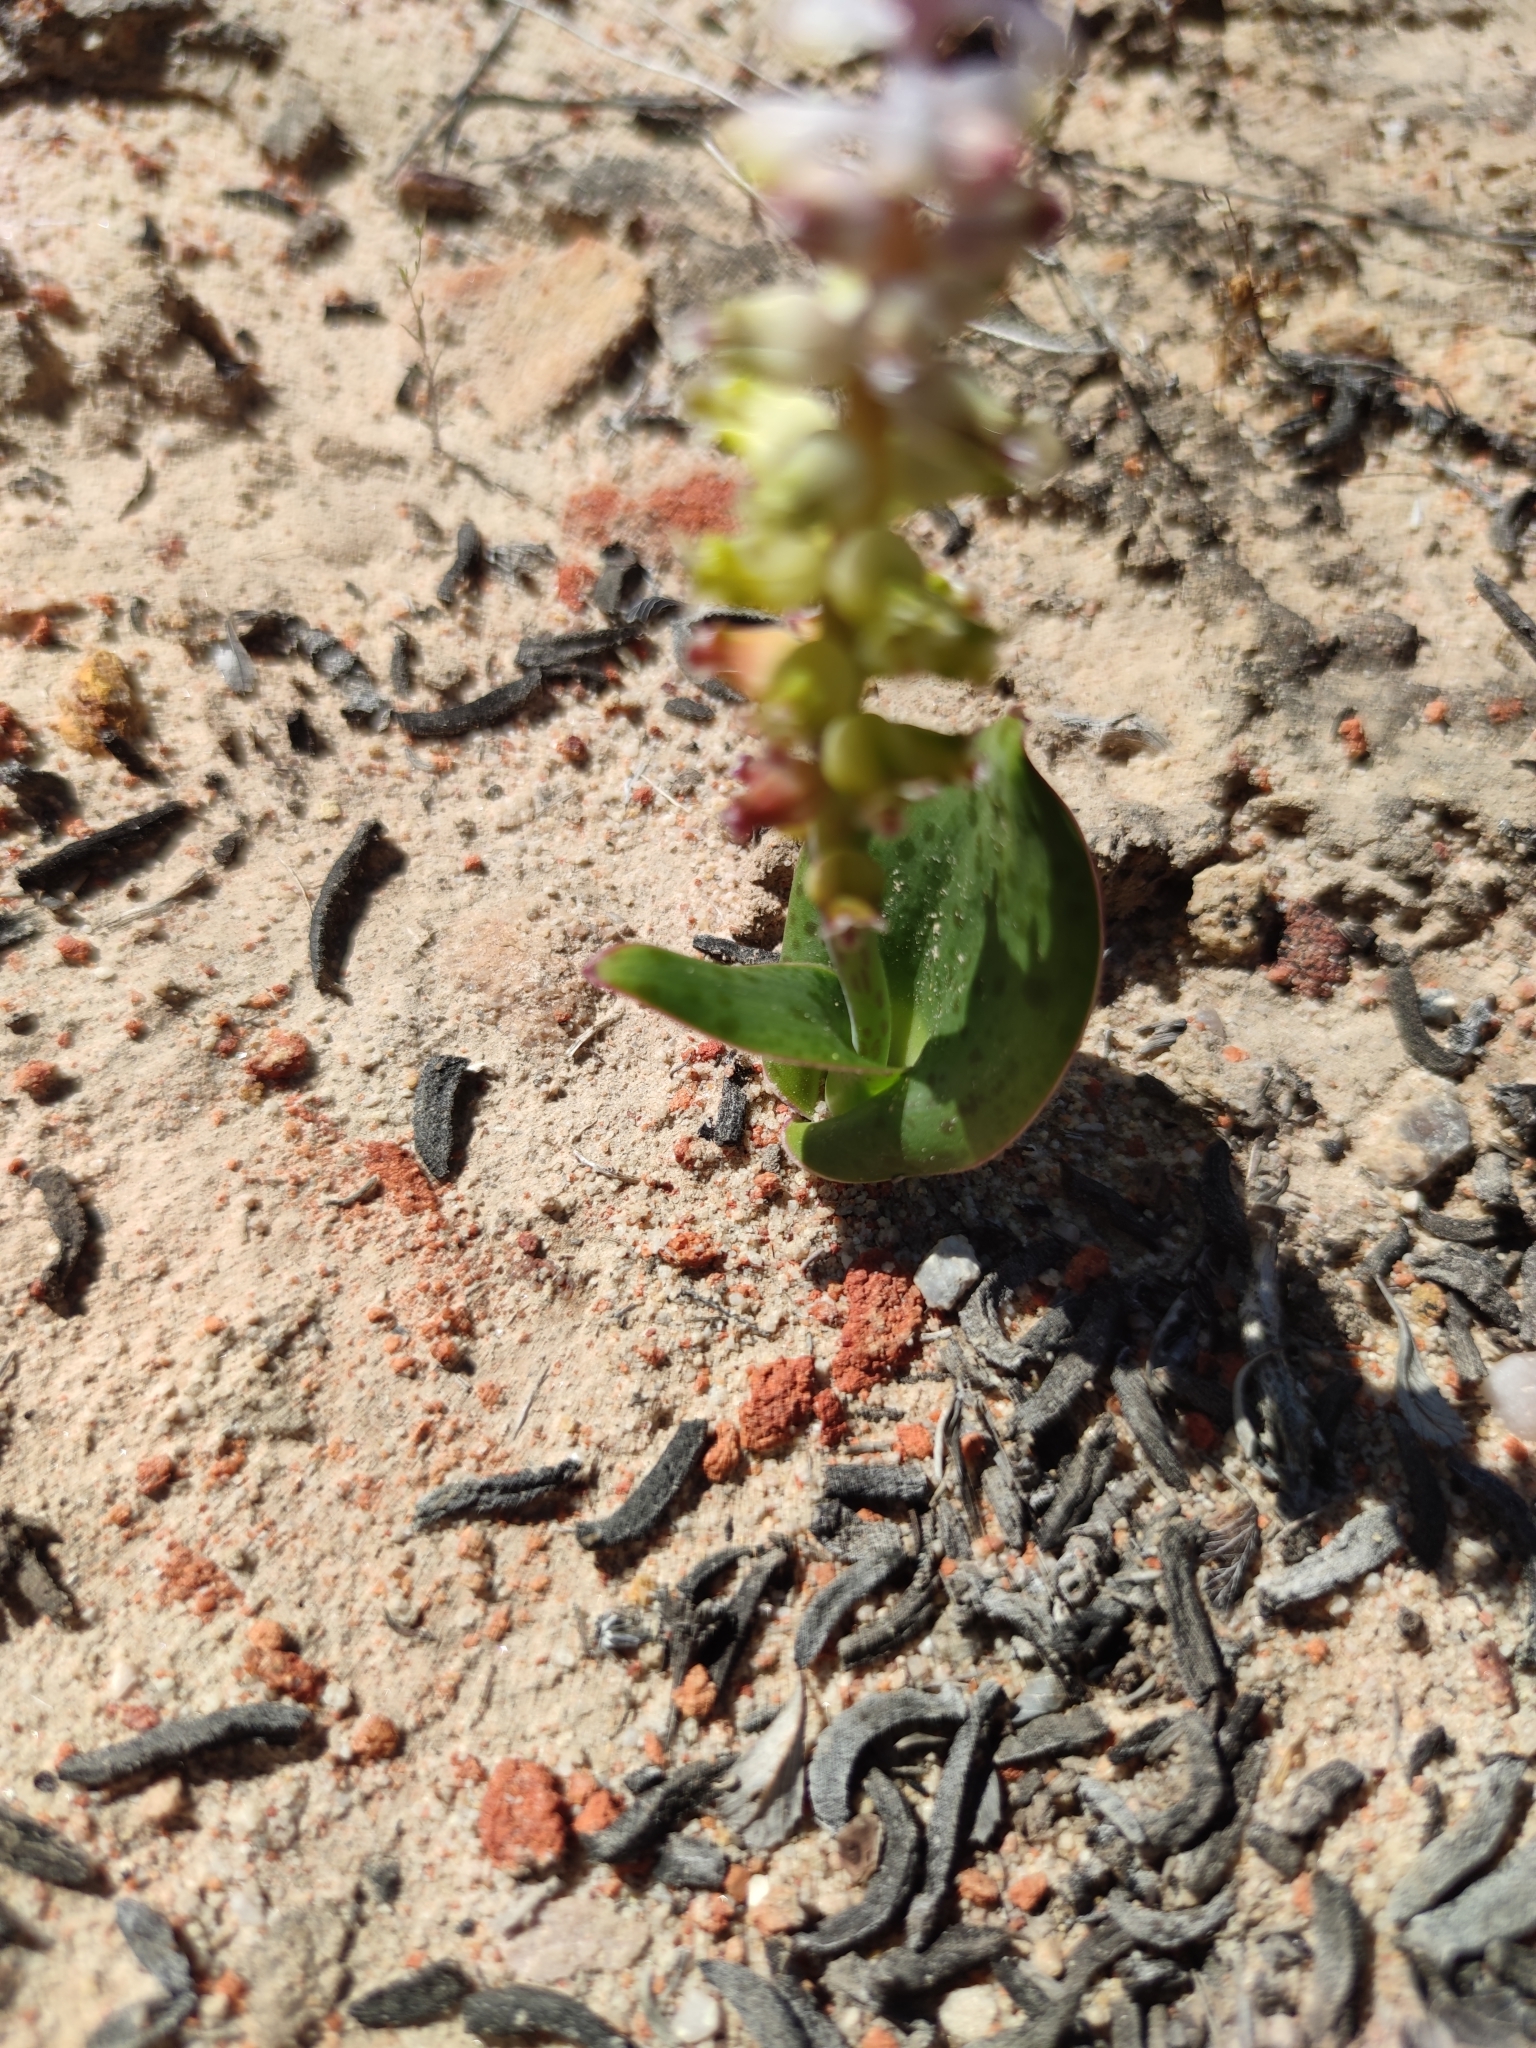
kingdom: Plantae
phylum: Tracheophyta
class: Liliopsida
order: Asparagales
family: Asparagaceae
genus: Lachenalia
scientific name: Lachenalia membranacea
